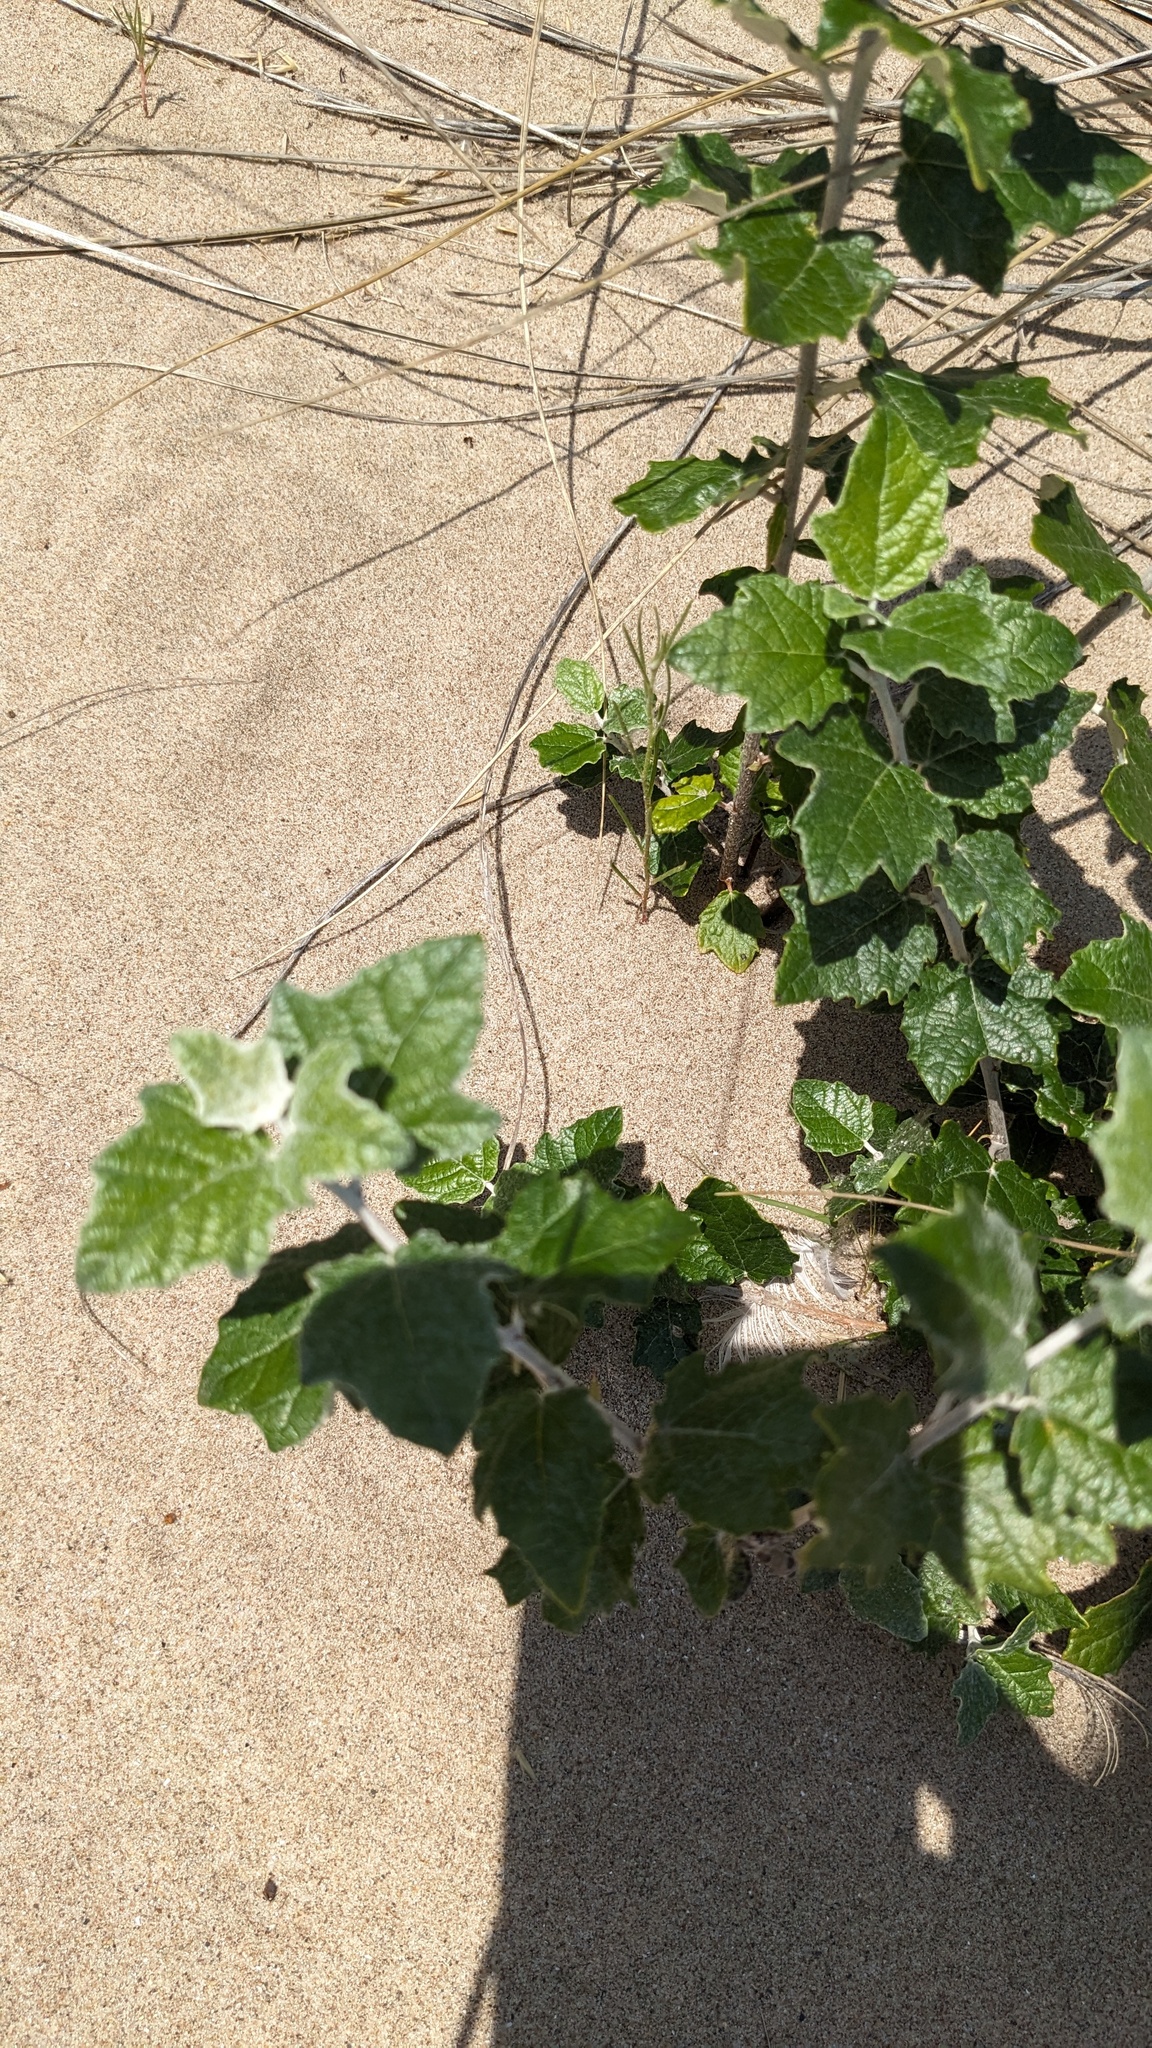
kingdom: Plantae
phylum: Tracheophyta
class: Magnoliopsida
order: Malpighiales
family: Salicaceae
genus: Populus
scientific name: Populus alba
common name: White poplar
